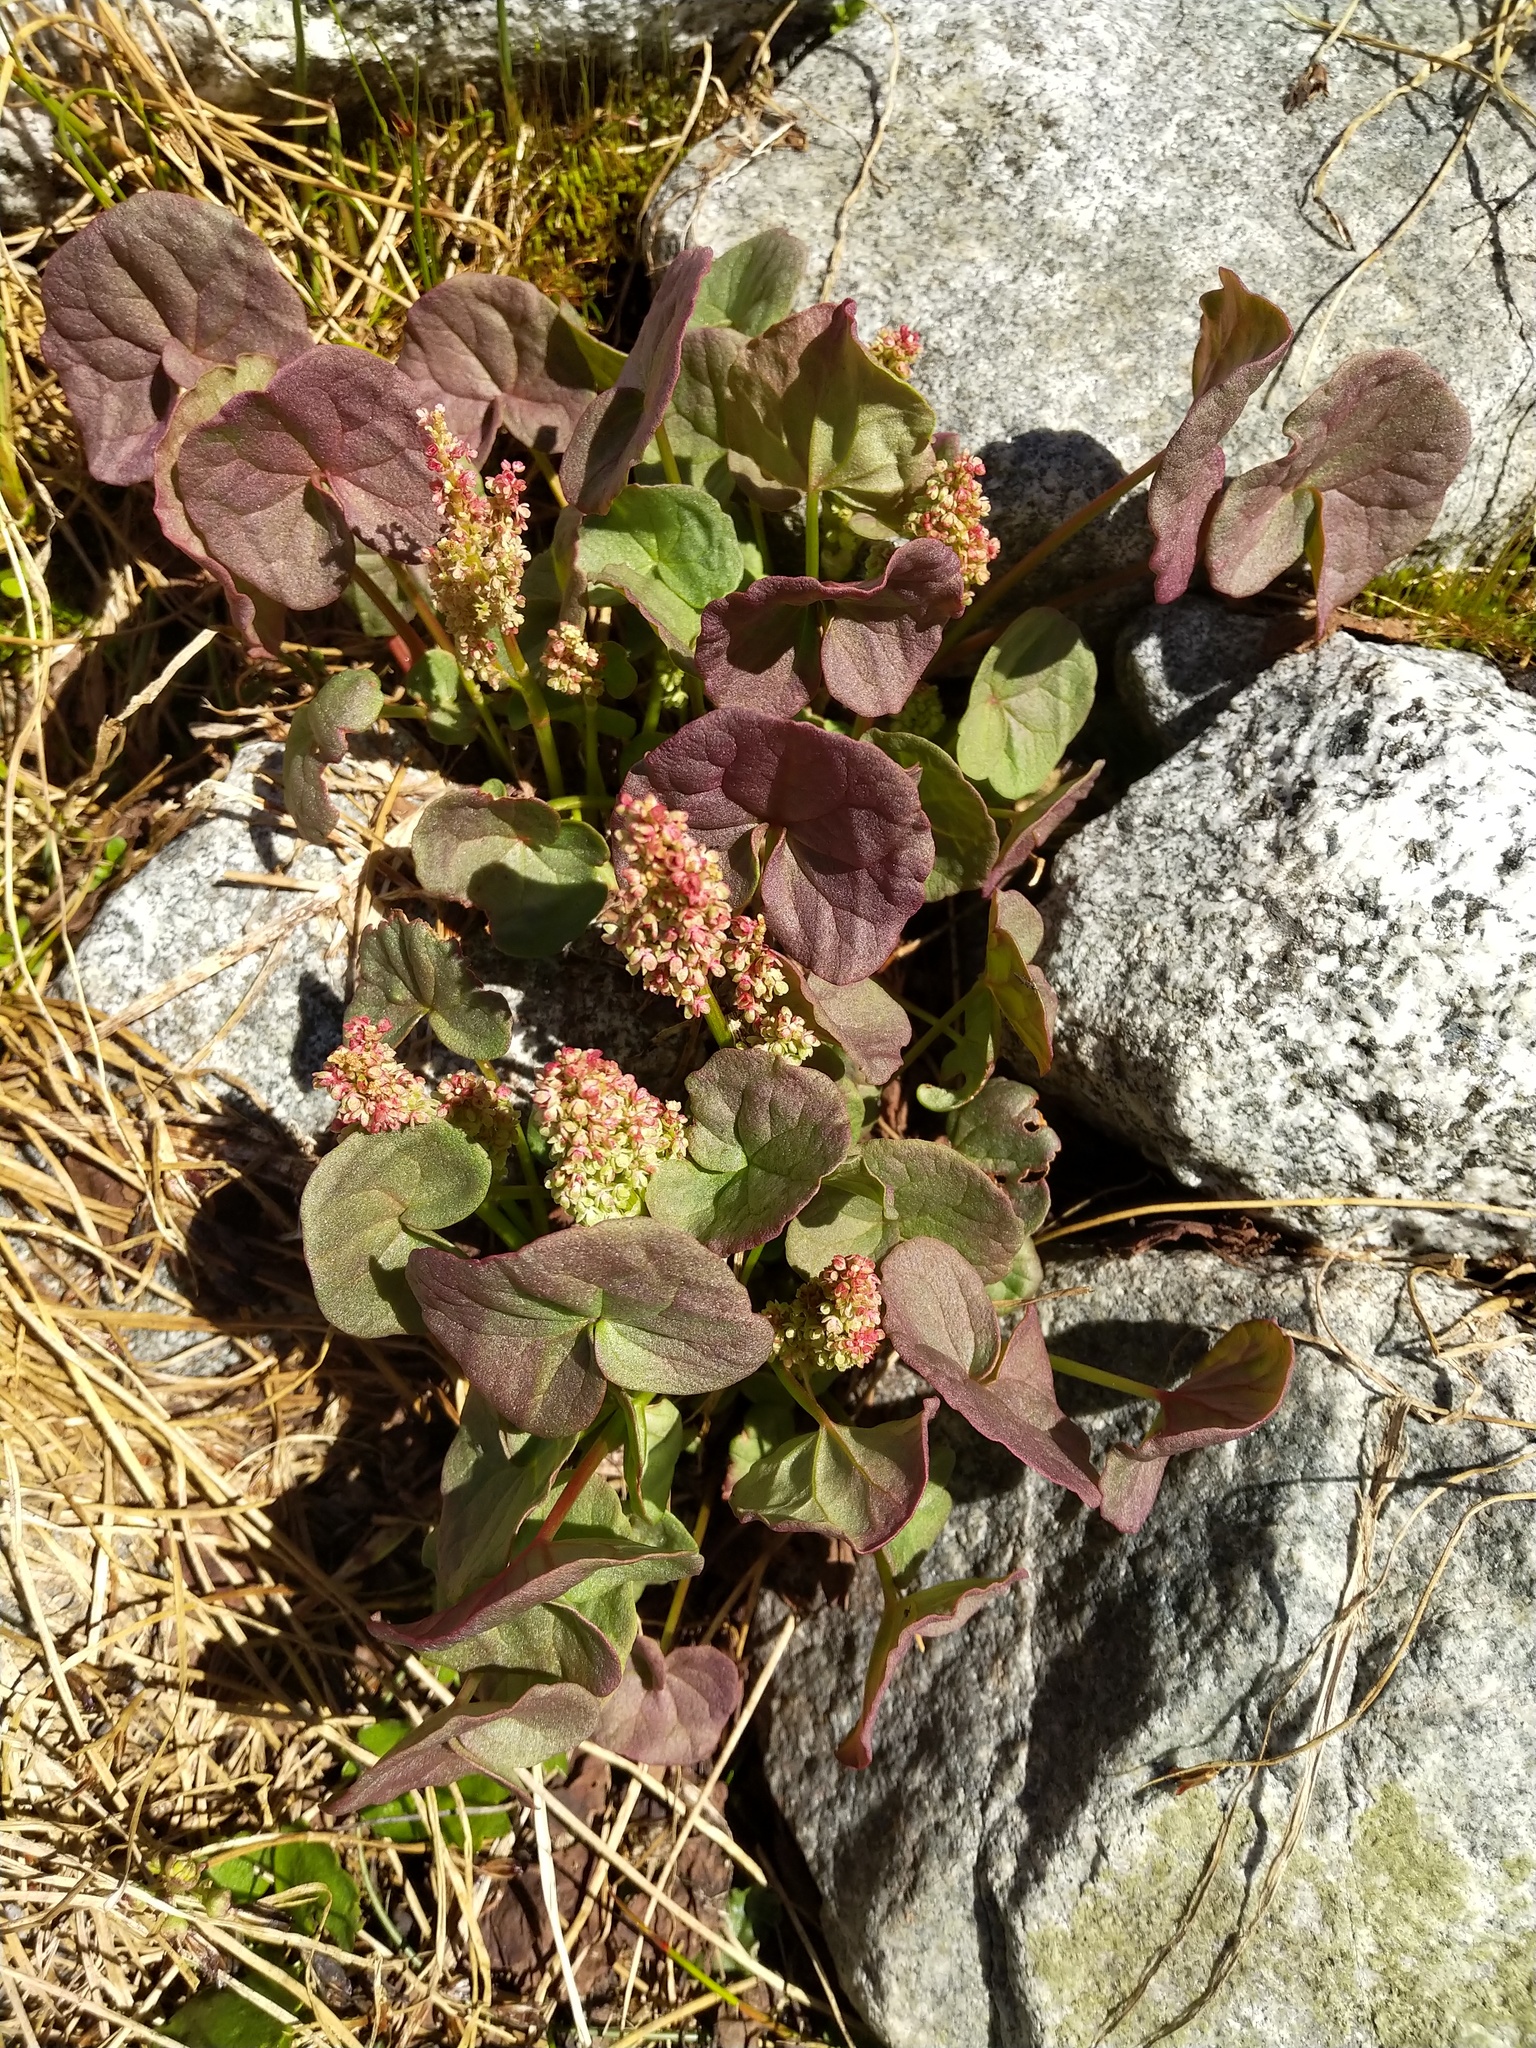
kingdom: Plantae
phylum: Tracheophyta
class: Magnoliopsida
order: Caryophyllales
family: Polygonaceae
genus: Oxyria
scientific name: Oxyria digyna
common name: Alpine mountain-sorrel
